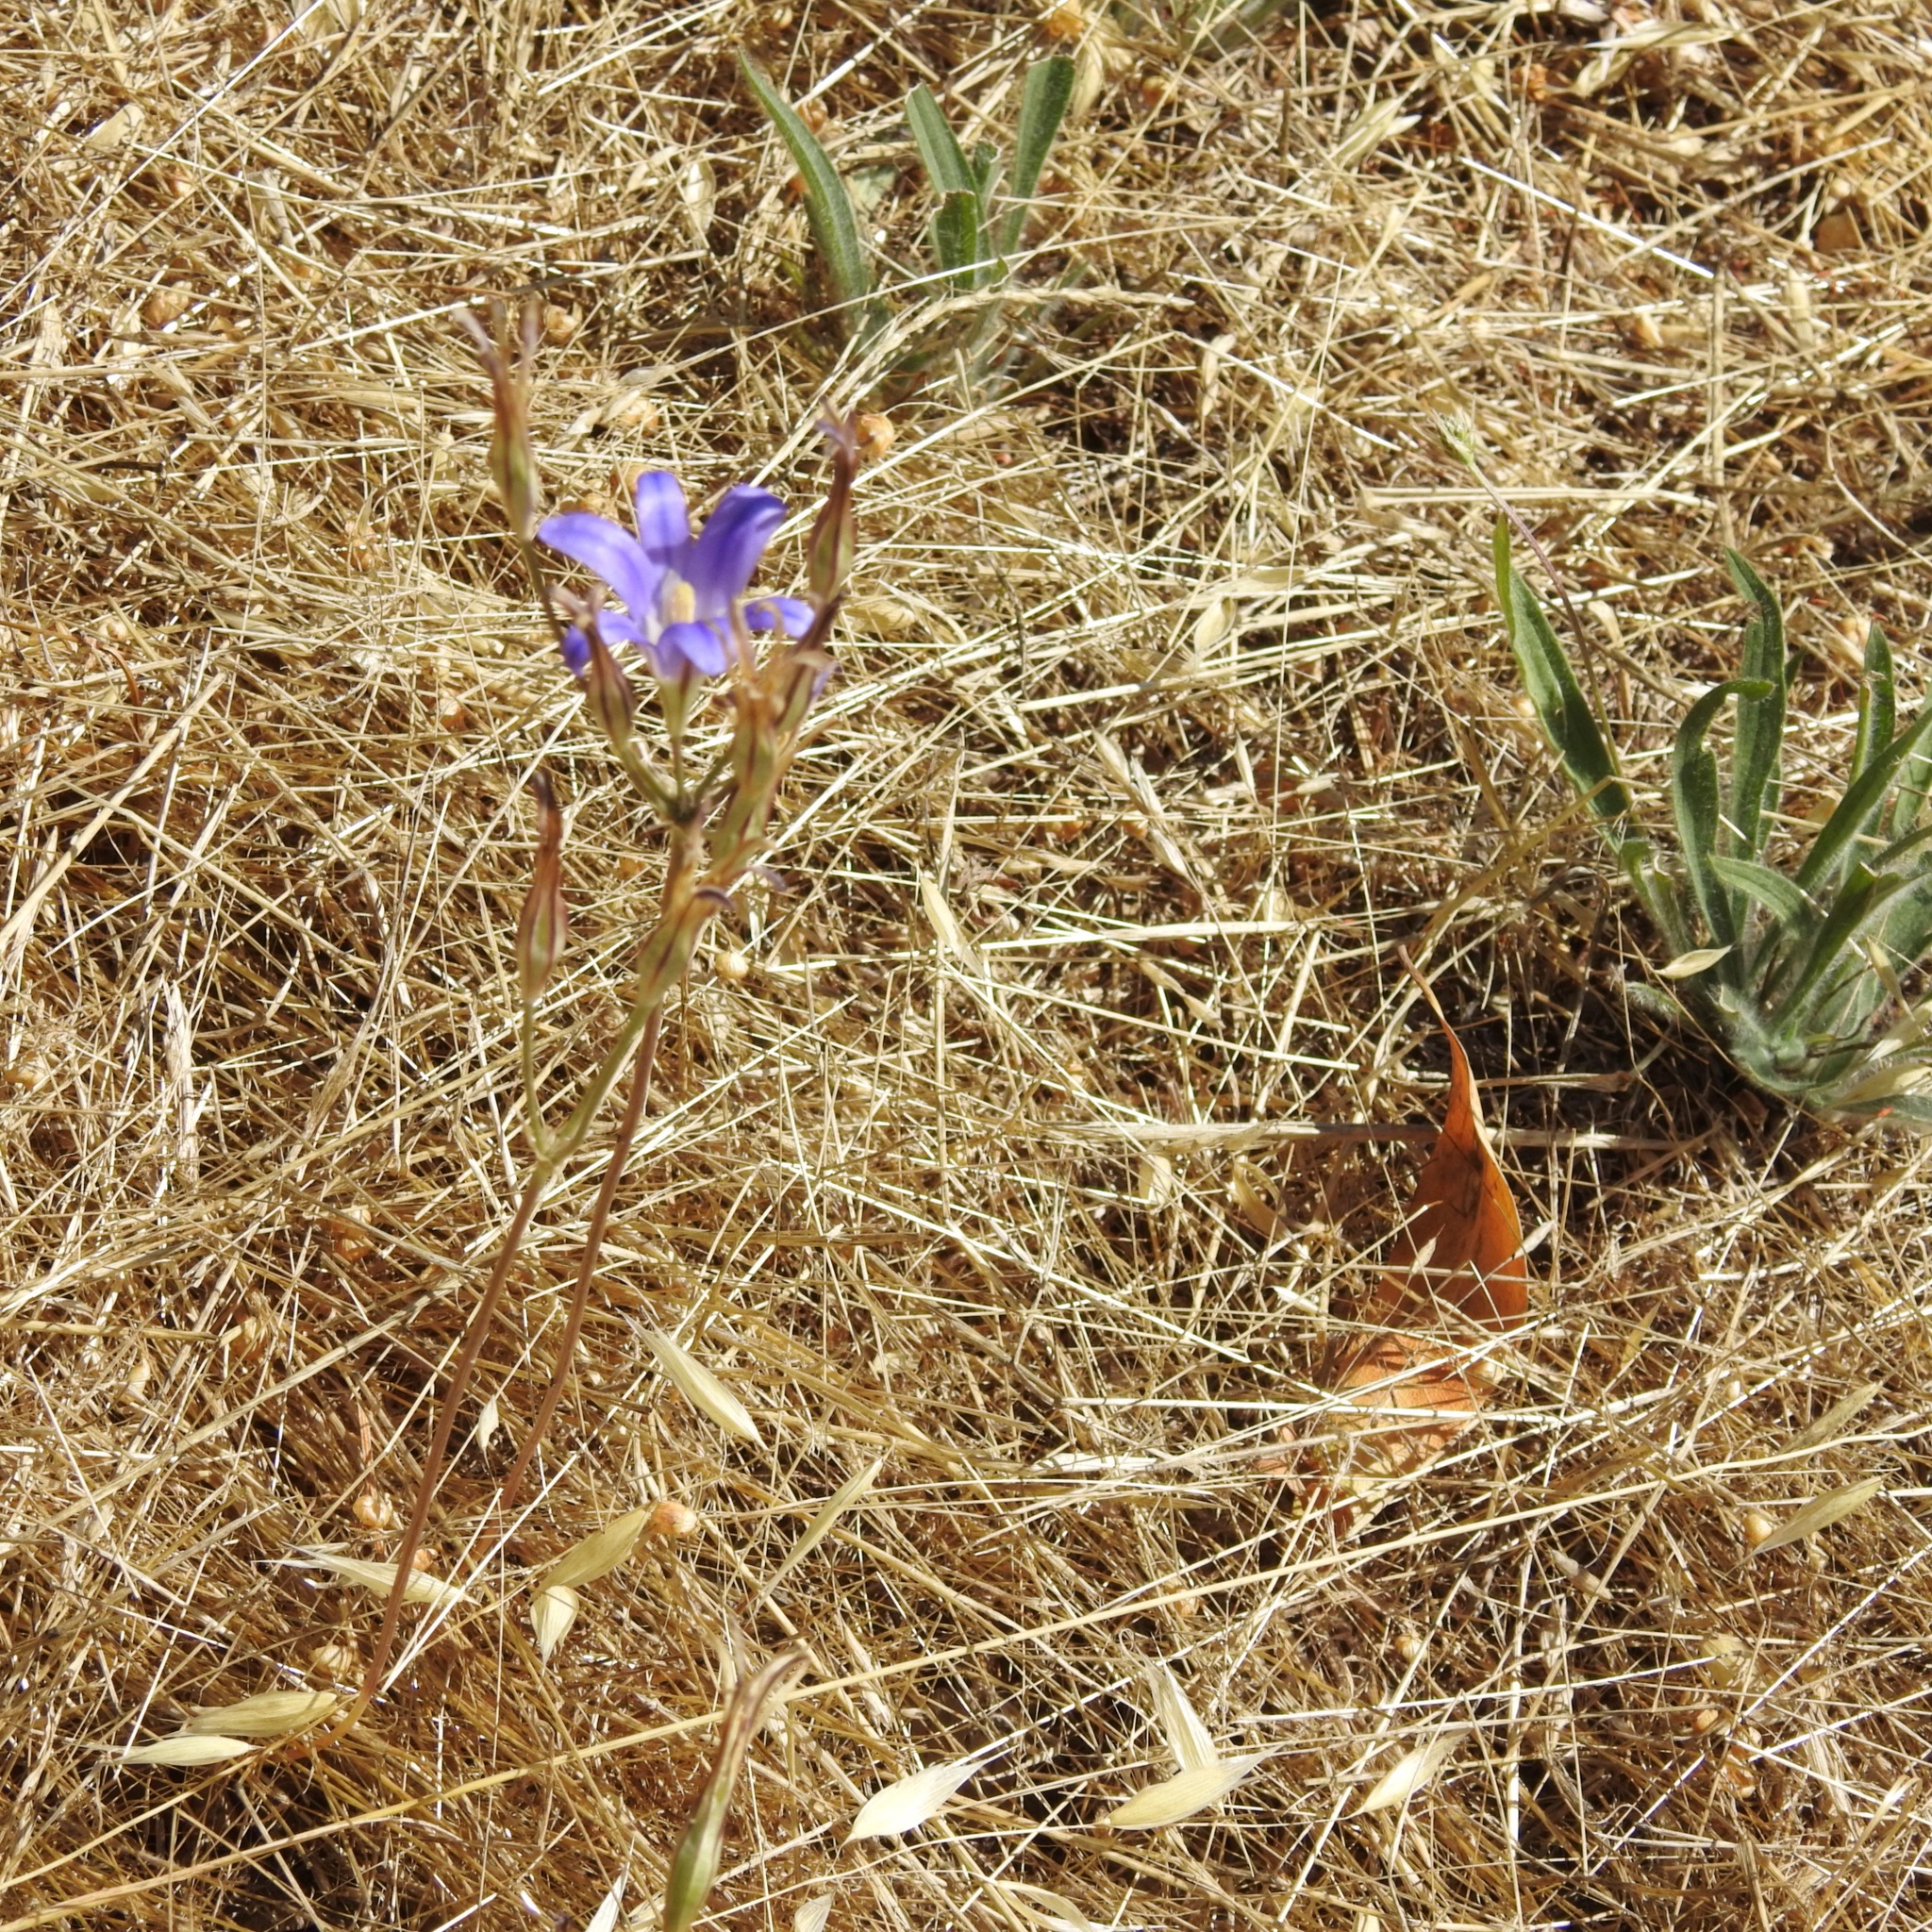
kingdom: Plantae
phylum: Tracheophyta
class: Liliopsida
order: Asparagales
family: Asparagaceae
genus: Brodiaea
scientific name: Brodiaea elegans
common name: Elegant cluster-lily
